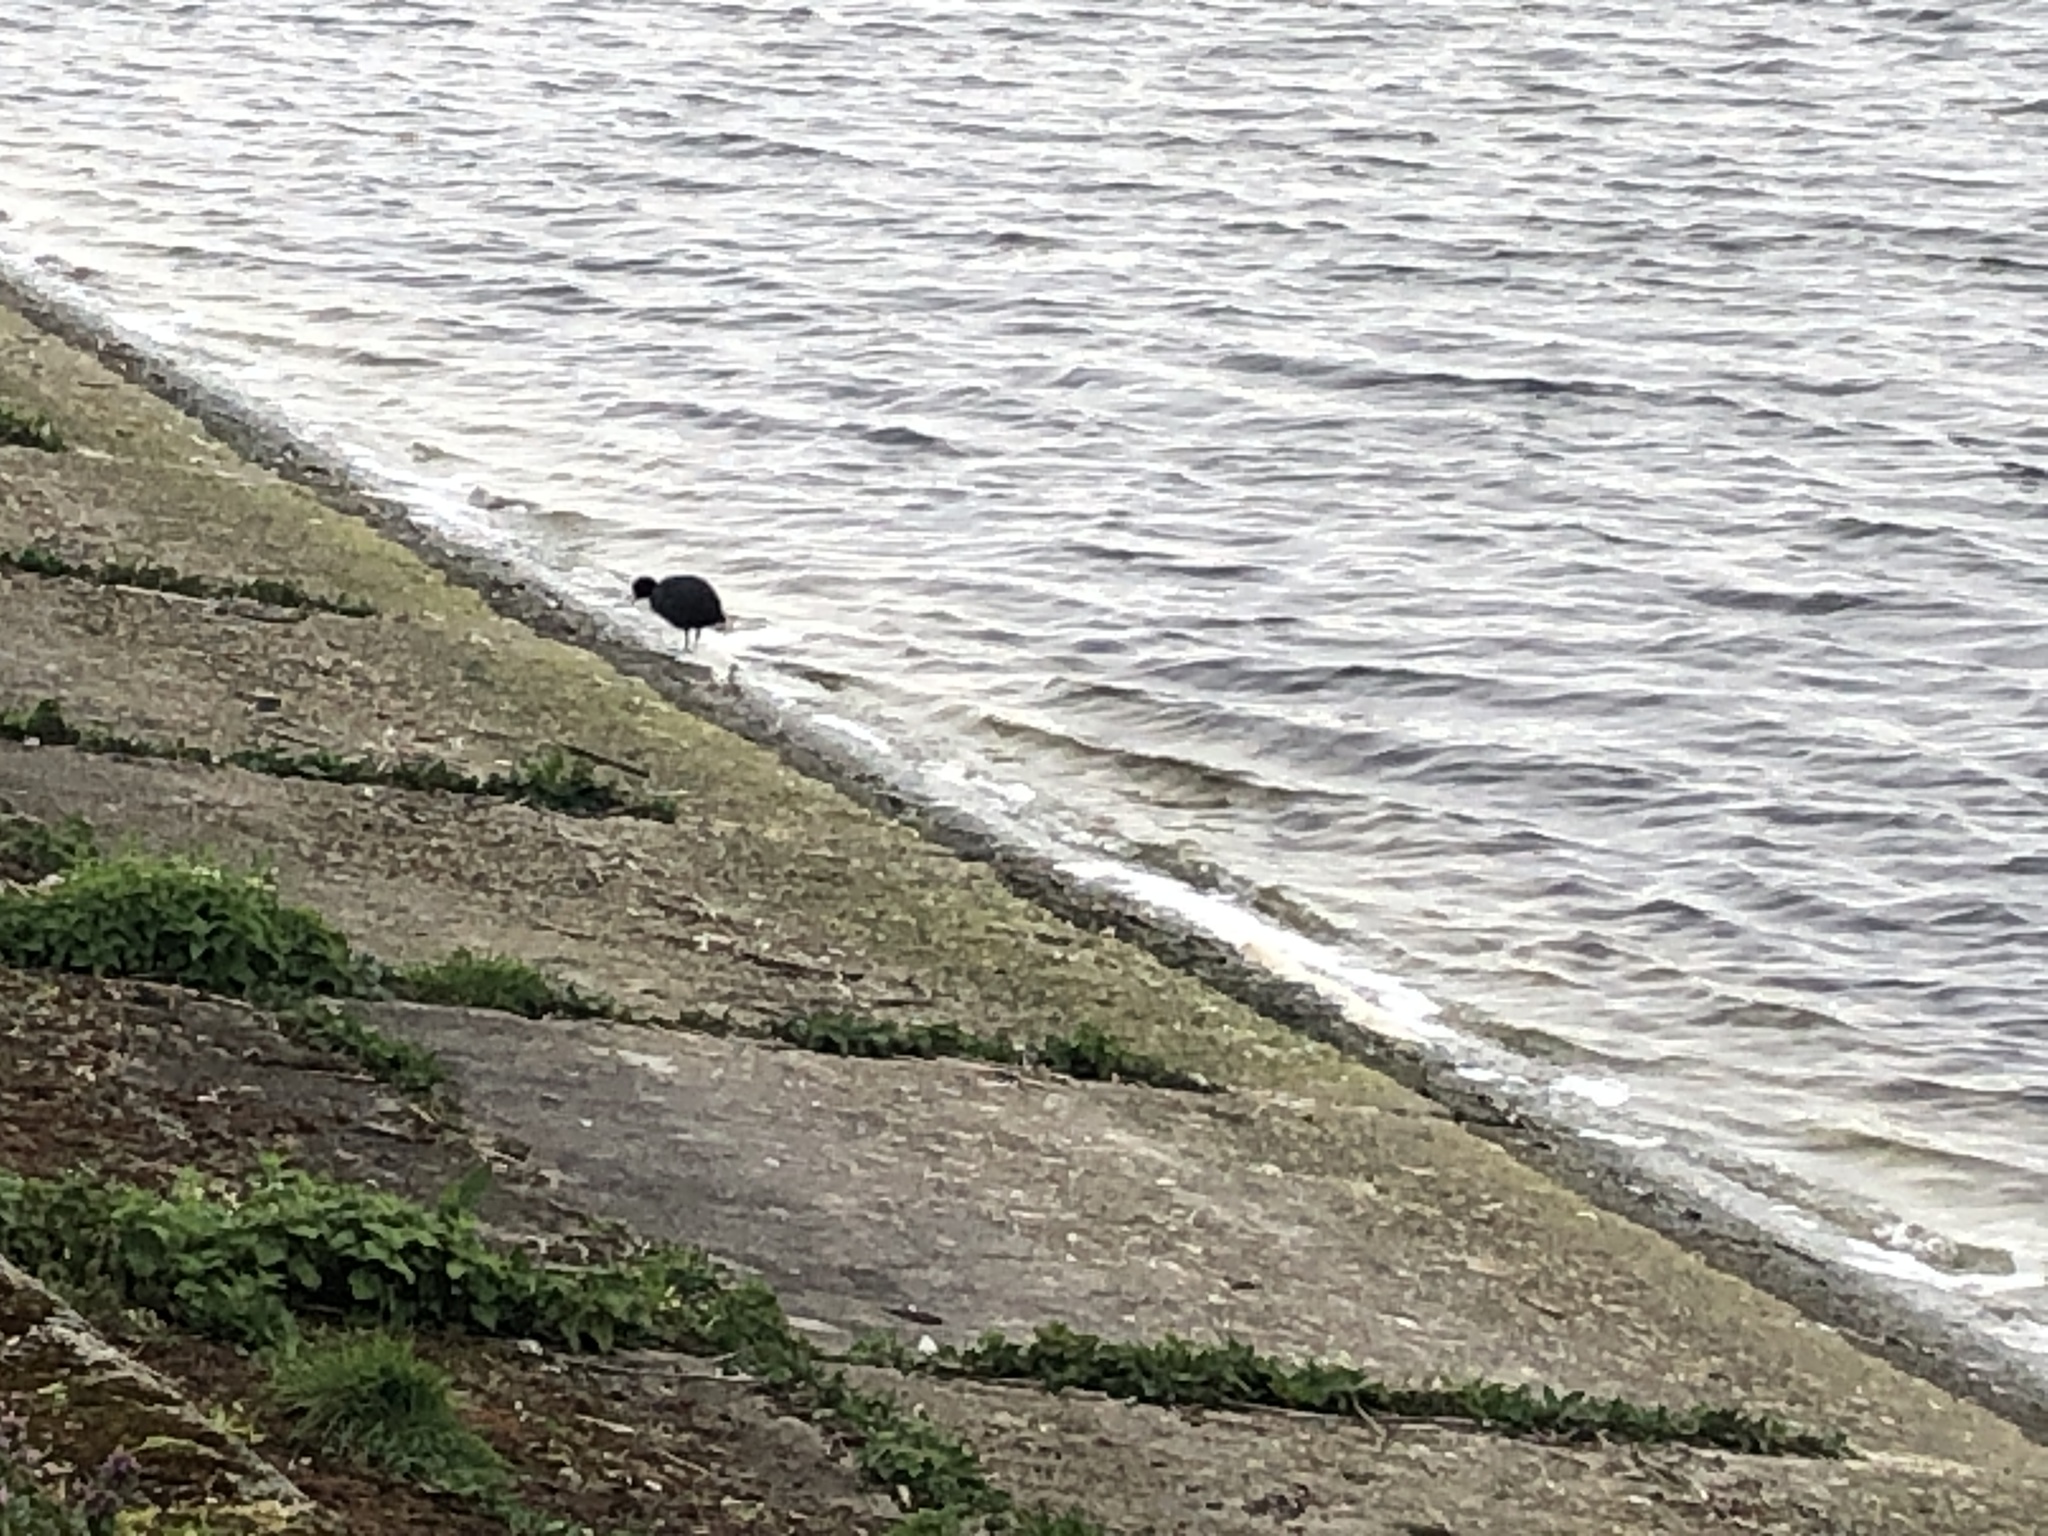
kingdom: Animalia
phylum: Chordata
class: Aves
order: Gruiformes
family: Rallidae
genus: Fulica
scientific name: Fulica atra
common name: Eurasian coot
